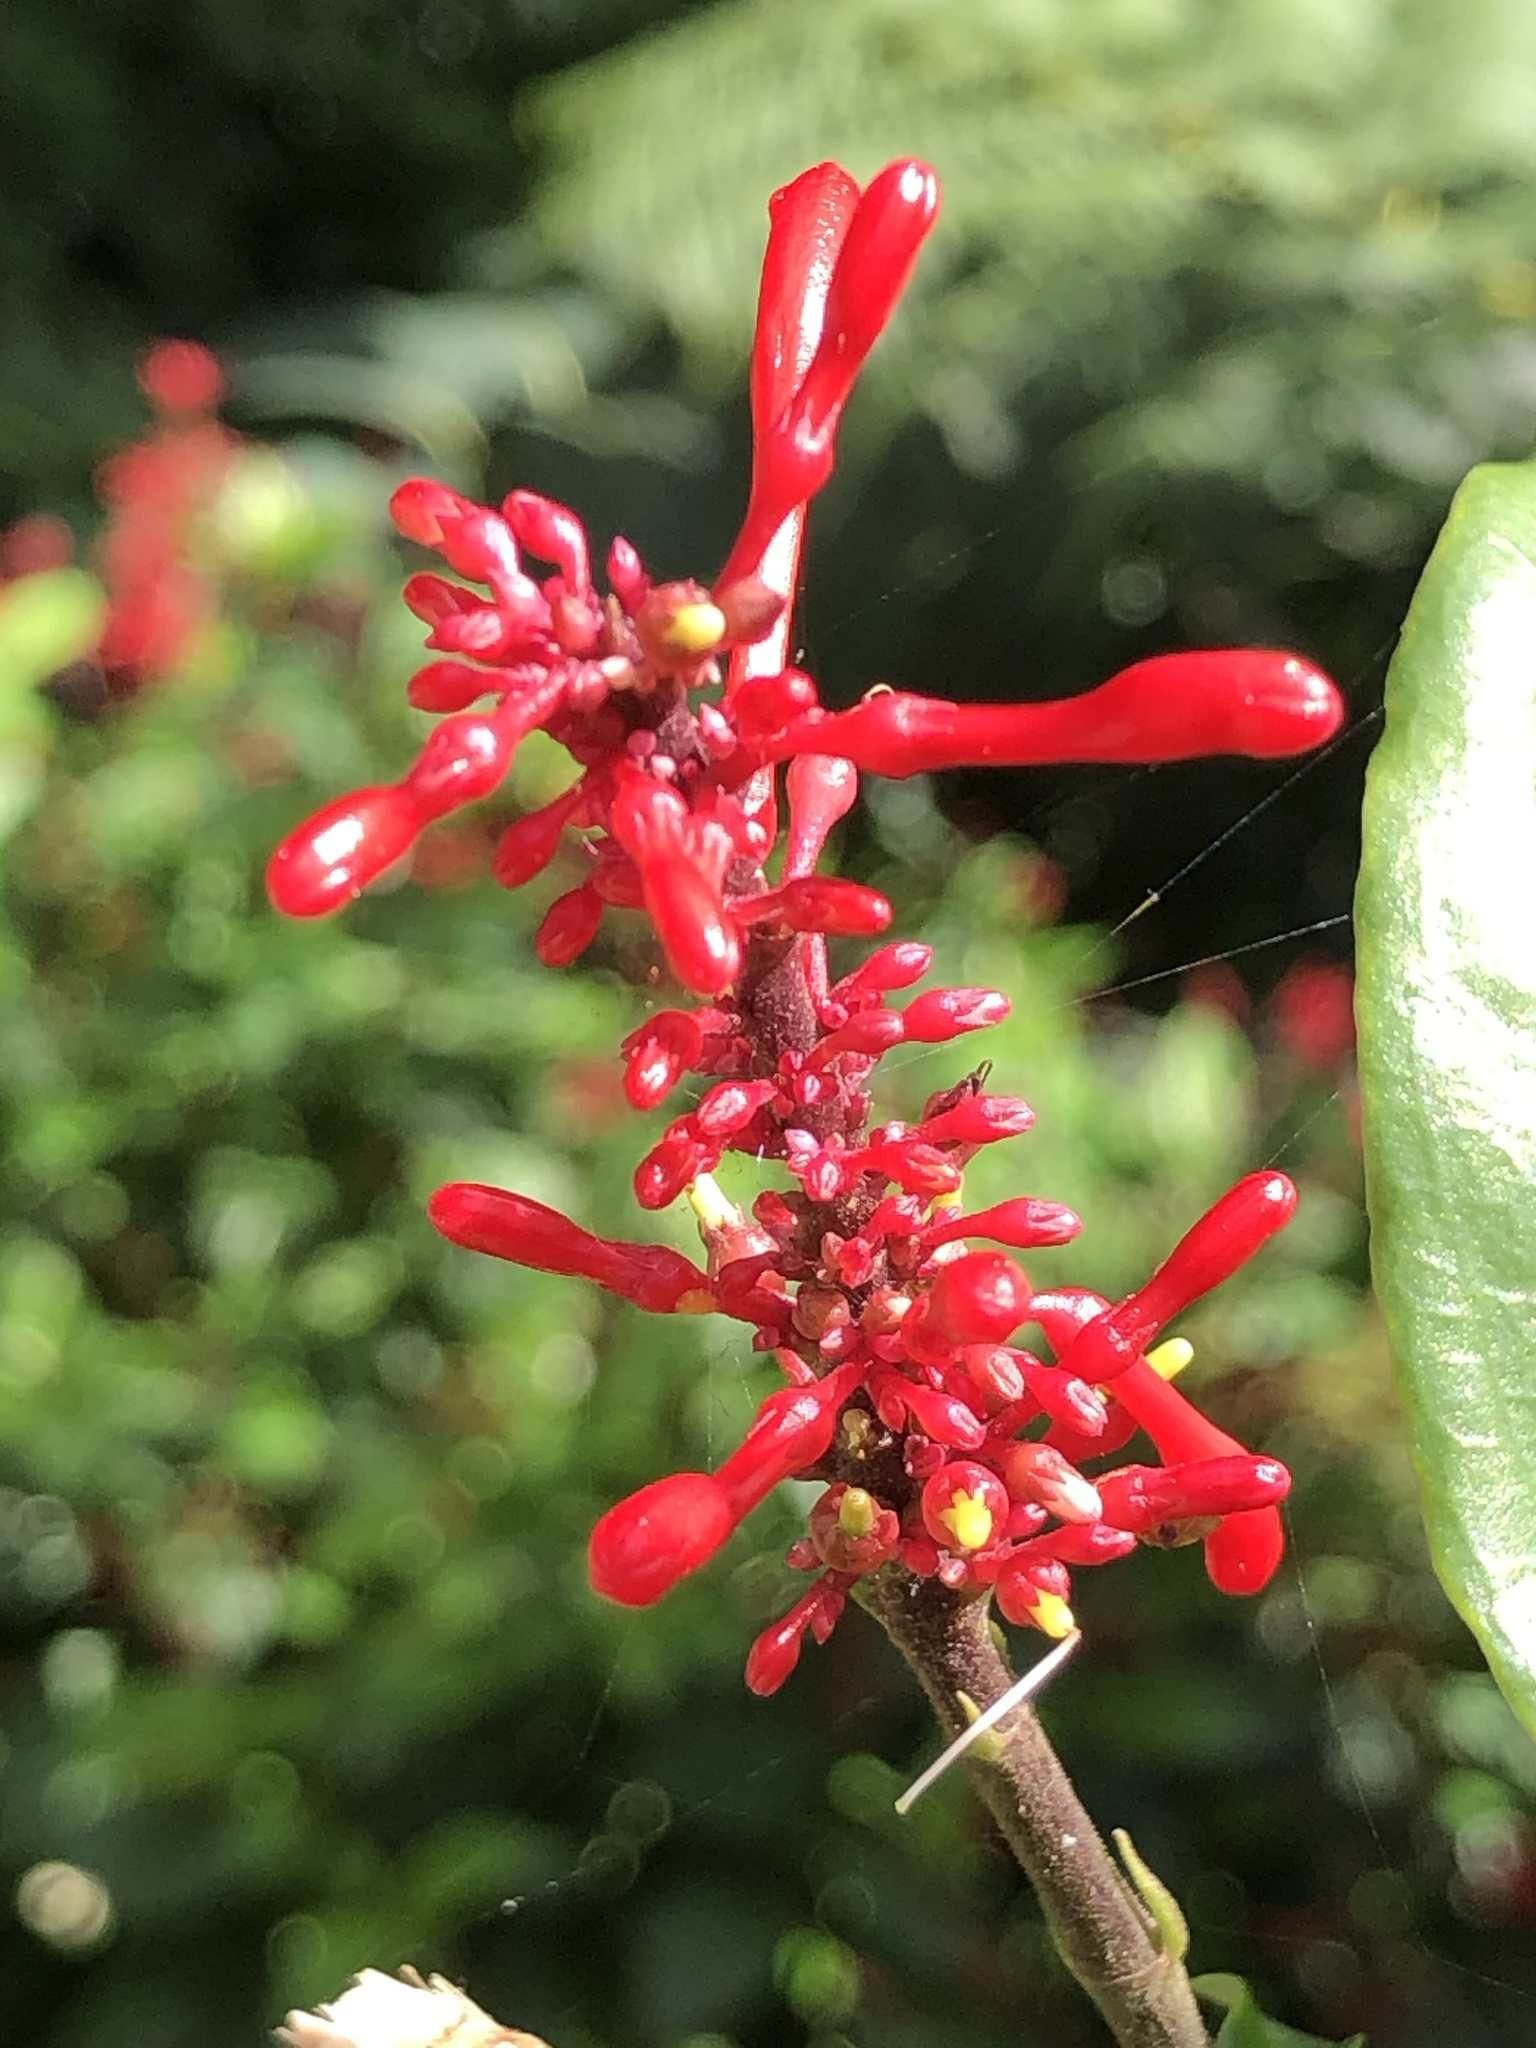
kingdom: Plantae
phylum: Tracheophyta
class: Magnoliopsida
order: Lamiales
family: Acanthaceae
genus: Odontonema
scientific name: Odontonema cuspidatum
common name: Mottled toothedthread
